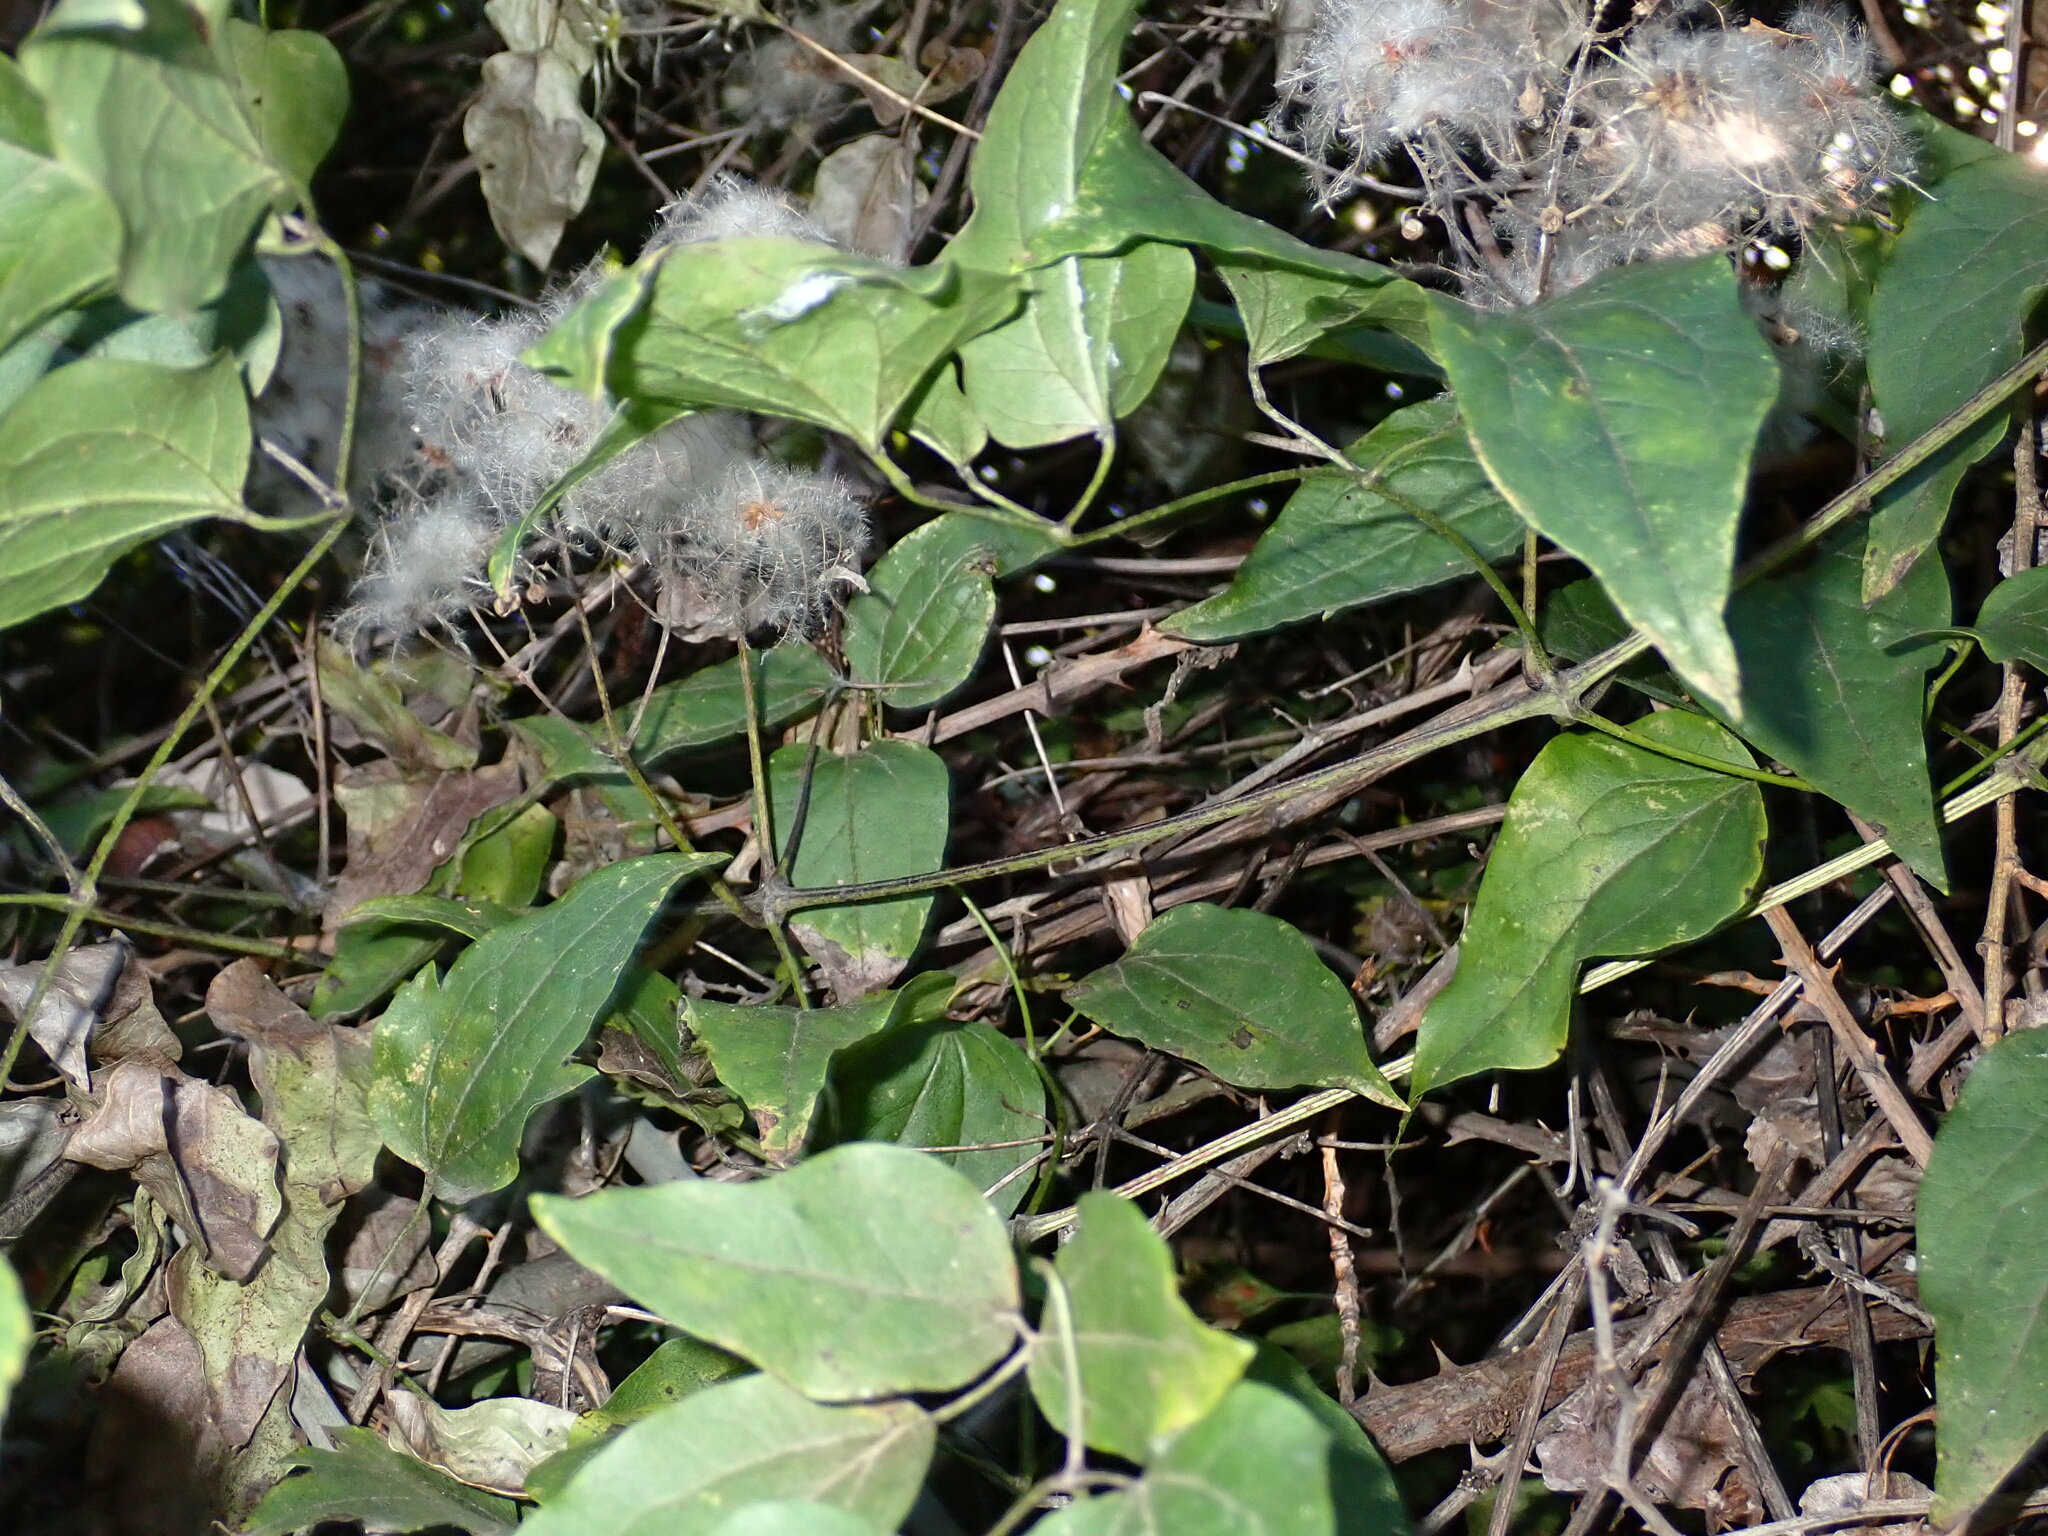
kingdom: Plantae
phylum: Tracheophyta
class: Magnoliopsida
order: Ranunculales
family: Ranunculaceae
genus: Clematis
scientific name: Clematis vitalba
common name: Evergreen clematis
